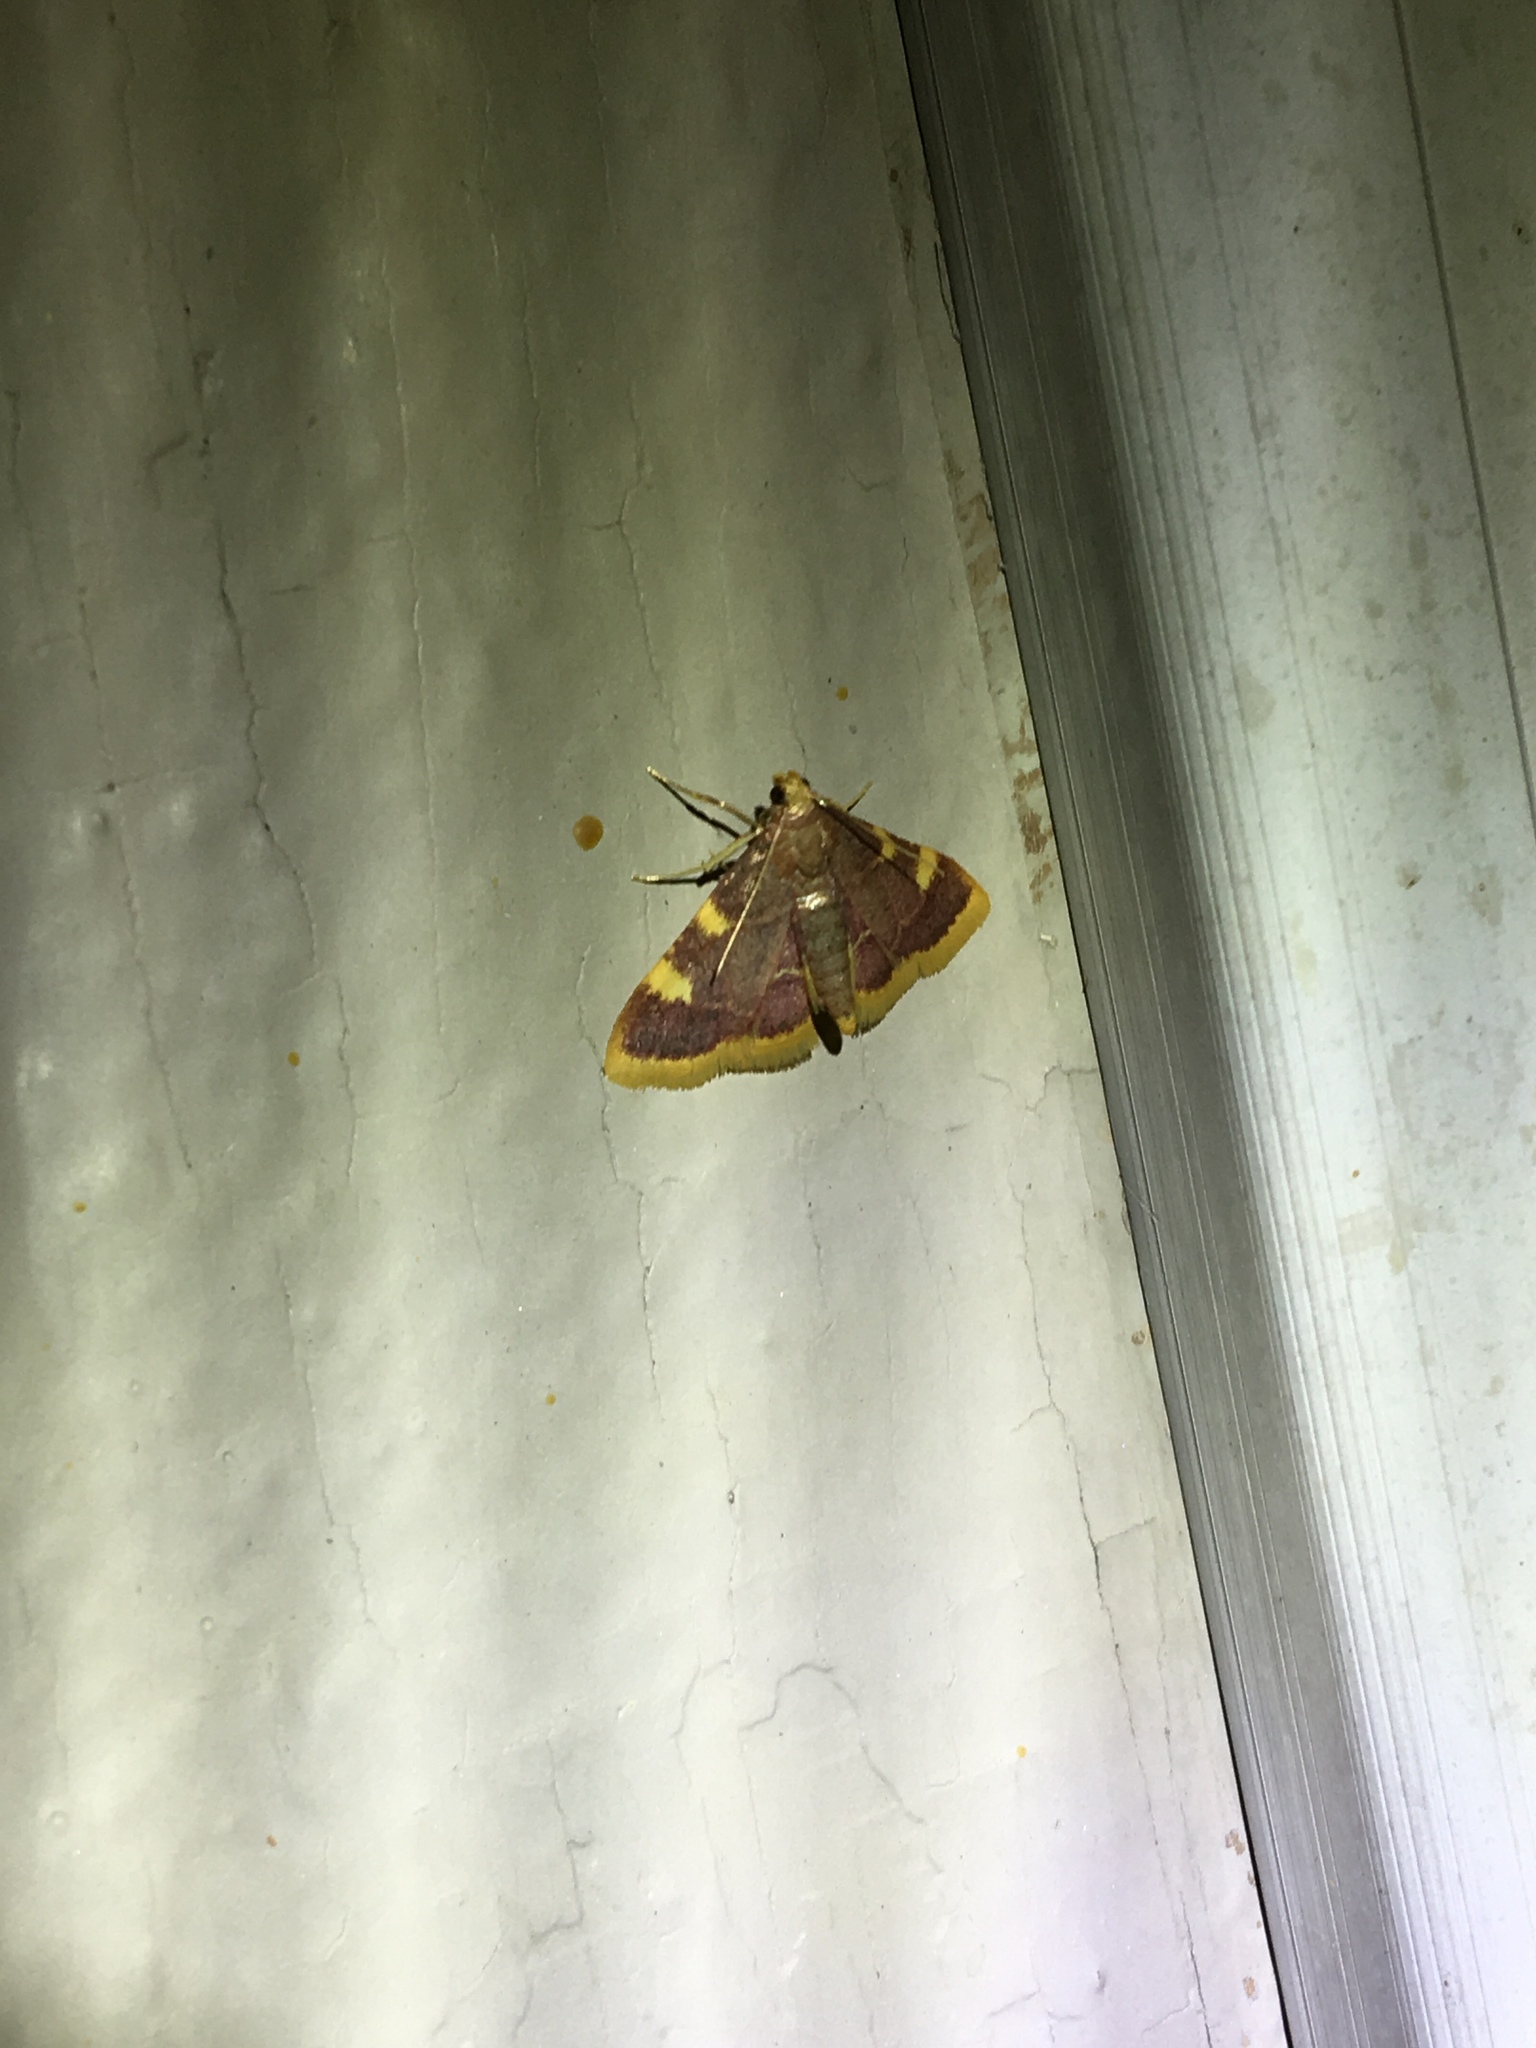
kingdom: Animalia
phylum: Arthropoda
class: Insecta
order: Lepidoptera
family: Pyralidae
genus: Hypsopygia
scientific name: Hypsopygia costalis
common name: Gold triangle
